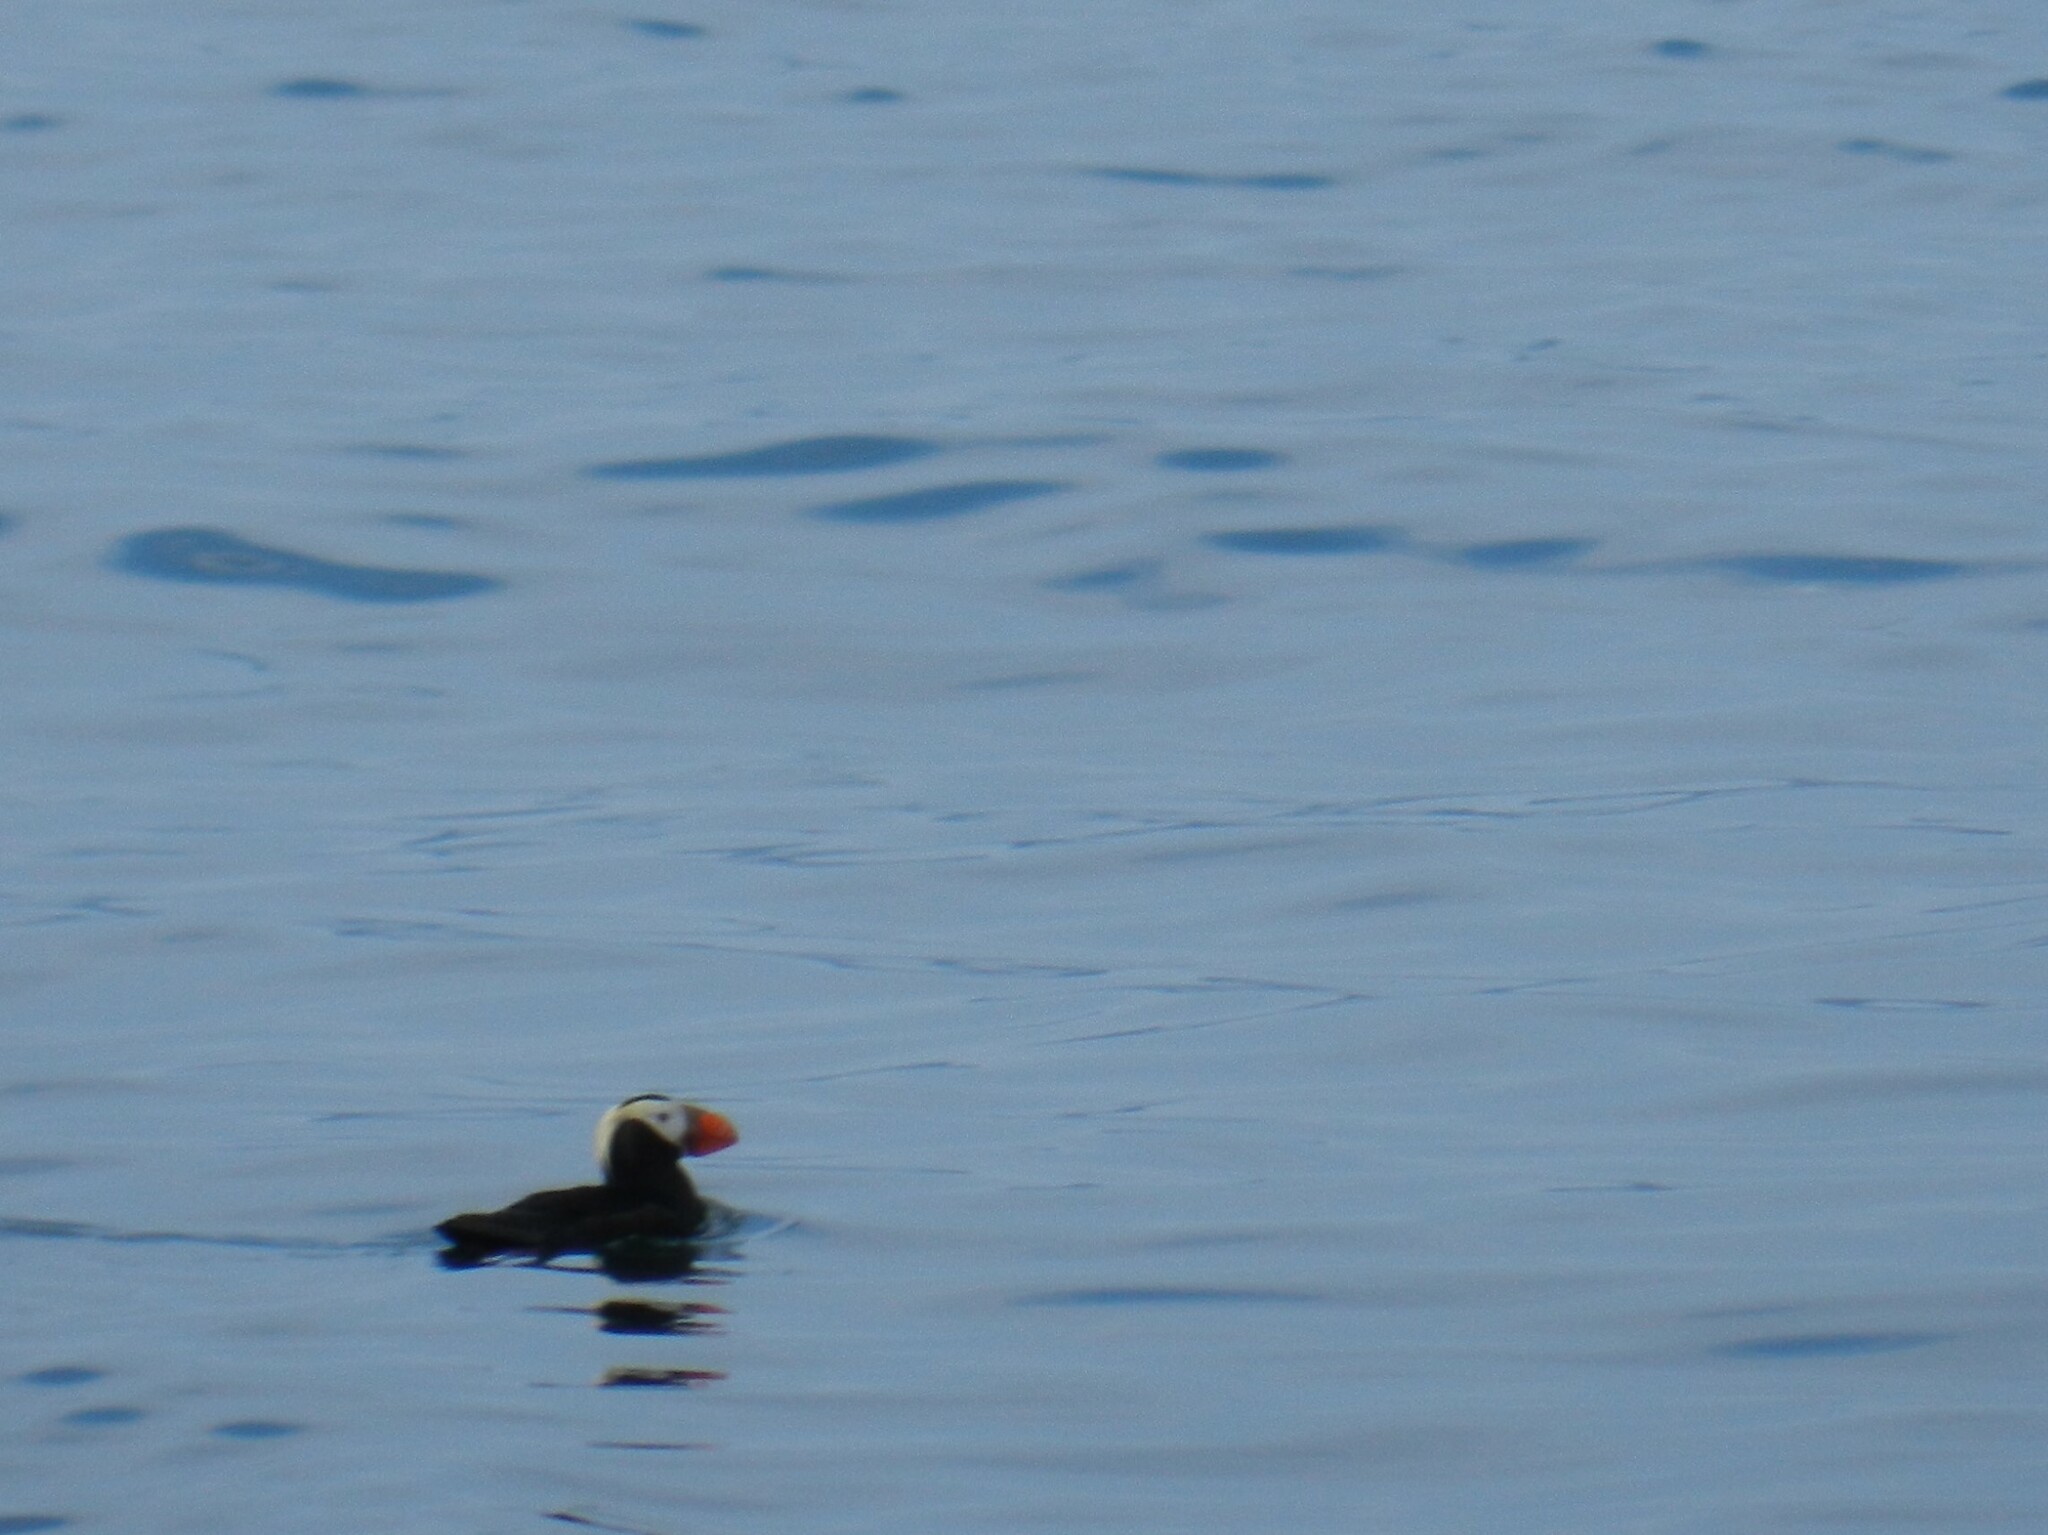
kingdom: Animalia
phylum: Chordata
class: Aves
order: Charadriiformes
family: Alcidae
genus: Fratercula
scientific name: Fratercula cirrhata
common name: Tufted puffin
